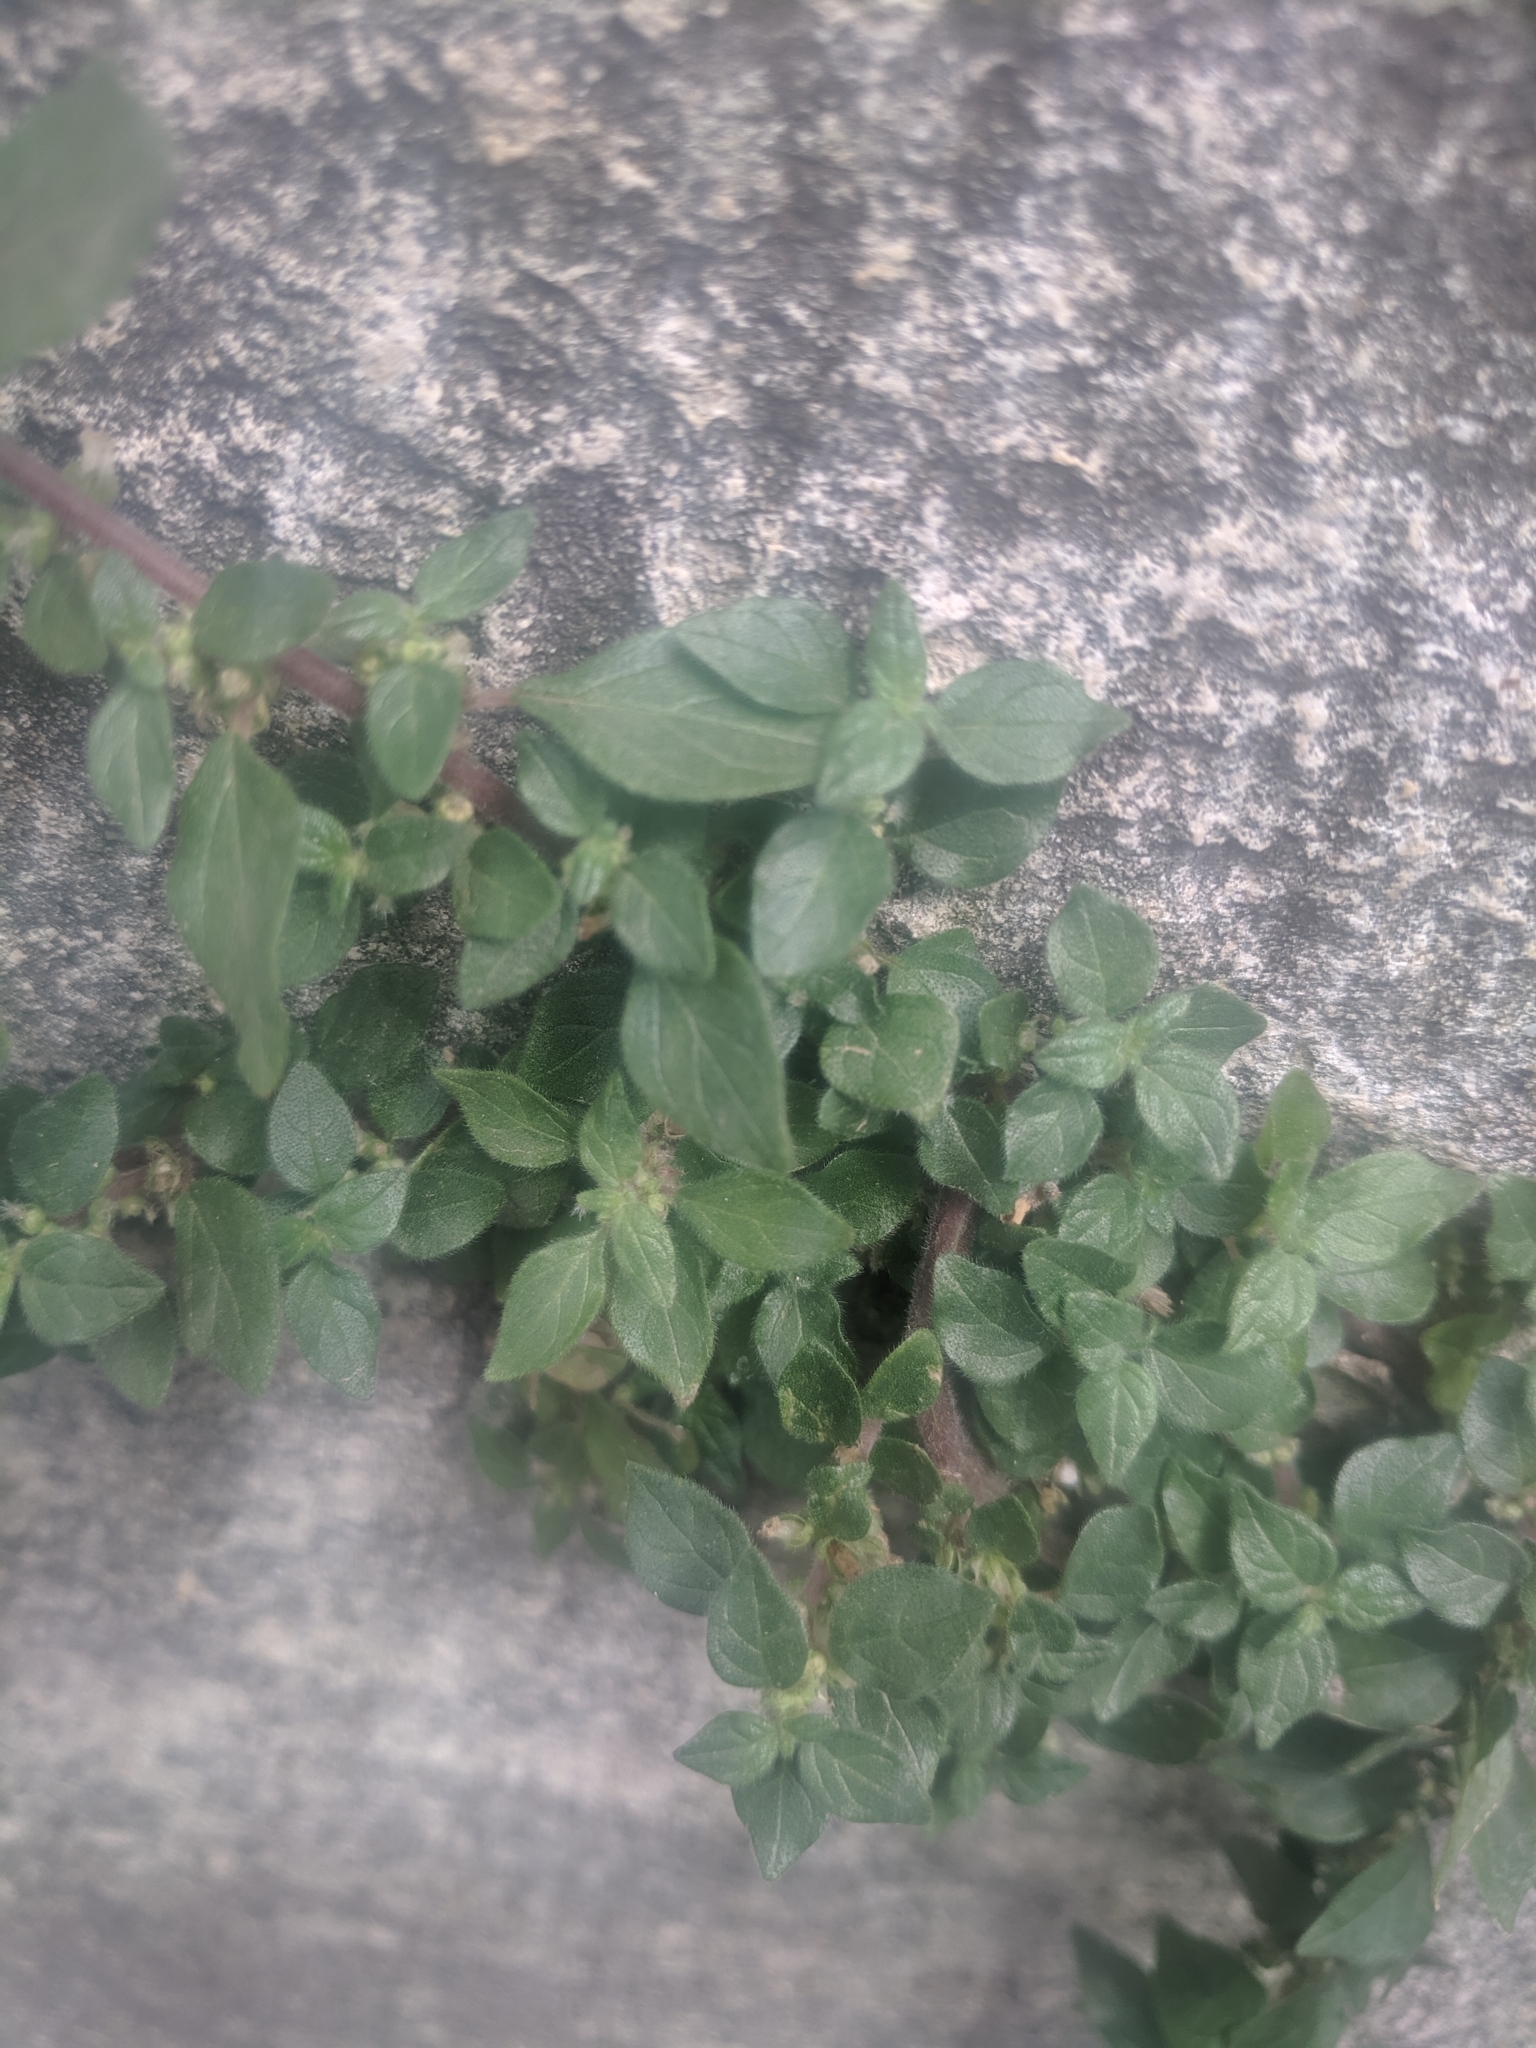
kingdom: Plantae
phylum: Tracheophyta
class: Magnoliopsida
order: Rosales
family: Urticaceae
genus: Parietaria
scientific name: Parietaria judaica
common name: Pellitory-of-the-wall
